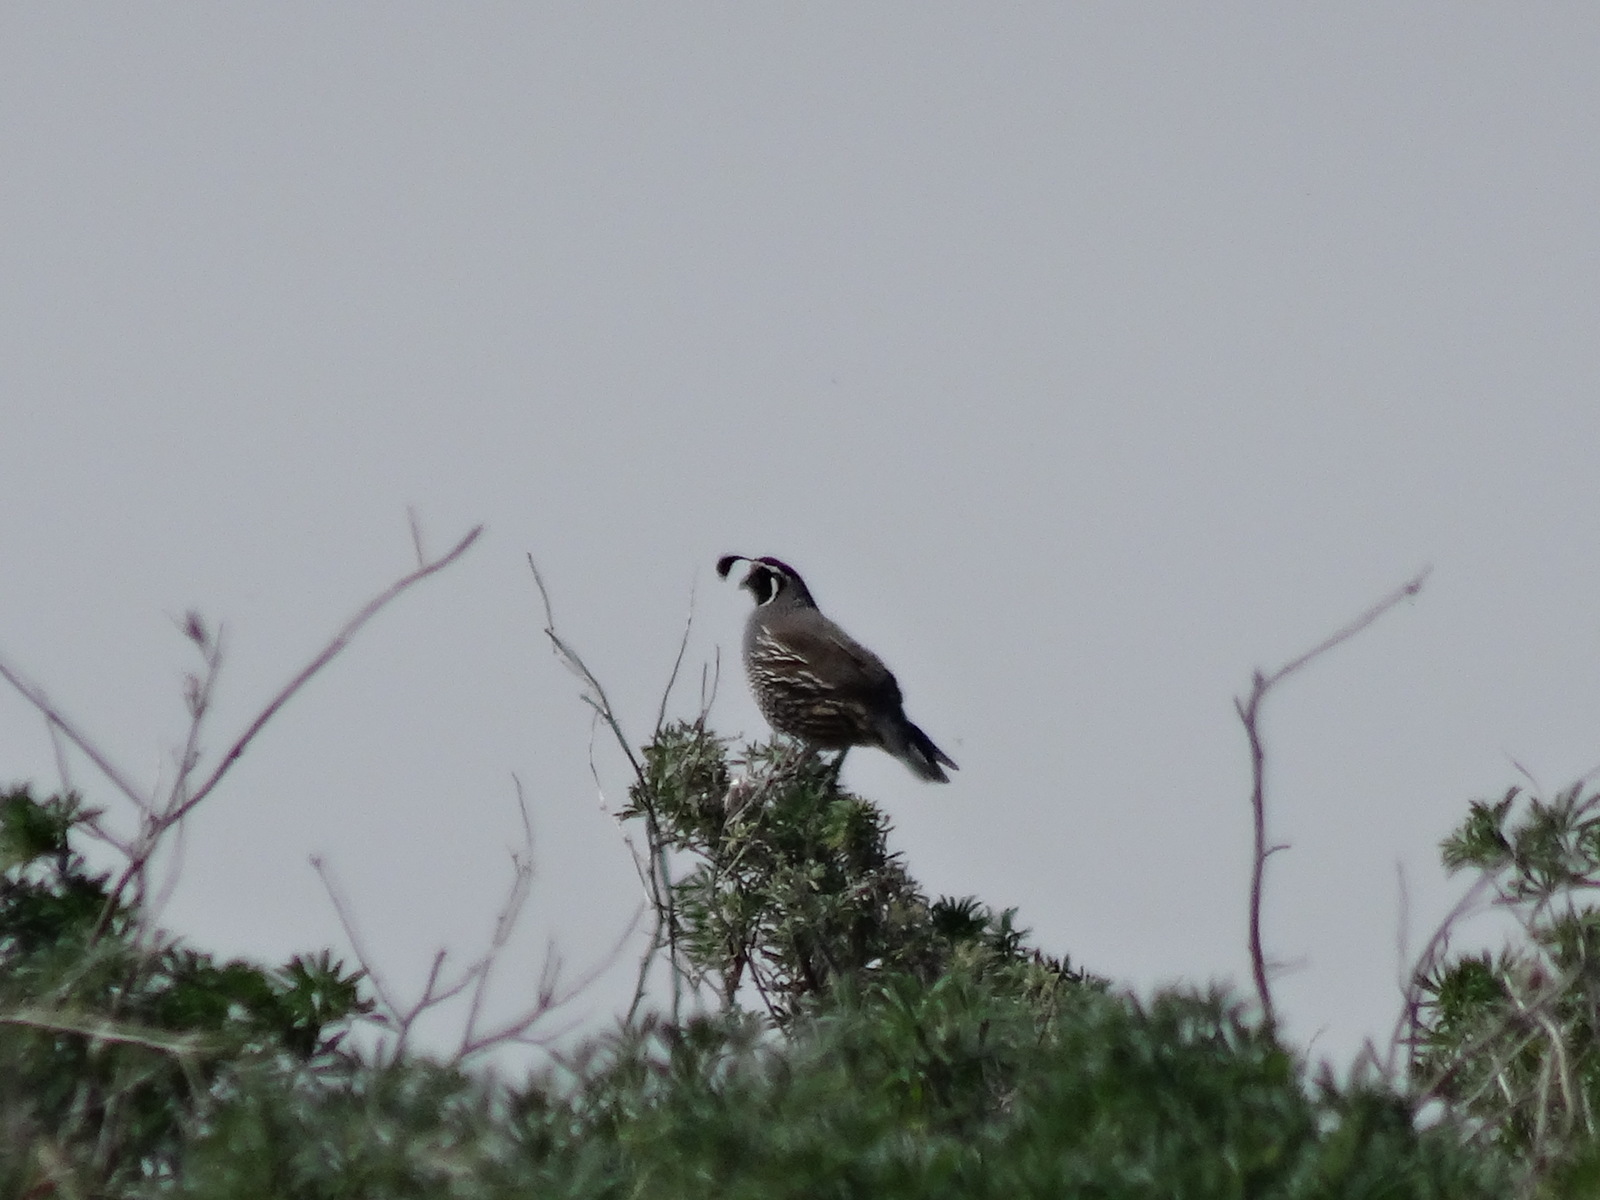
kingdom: Animalia
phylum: Chordata
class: Aves
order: Galliformes
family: Odontophoridae
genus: Callipepla
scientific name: Callipepla californica
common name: California quail
